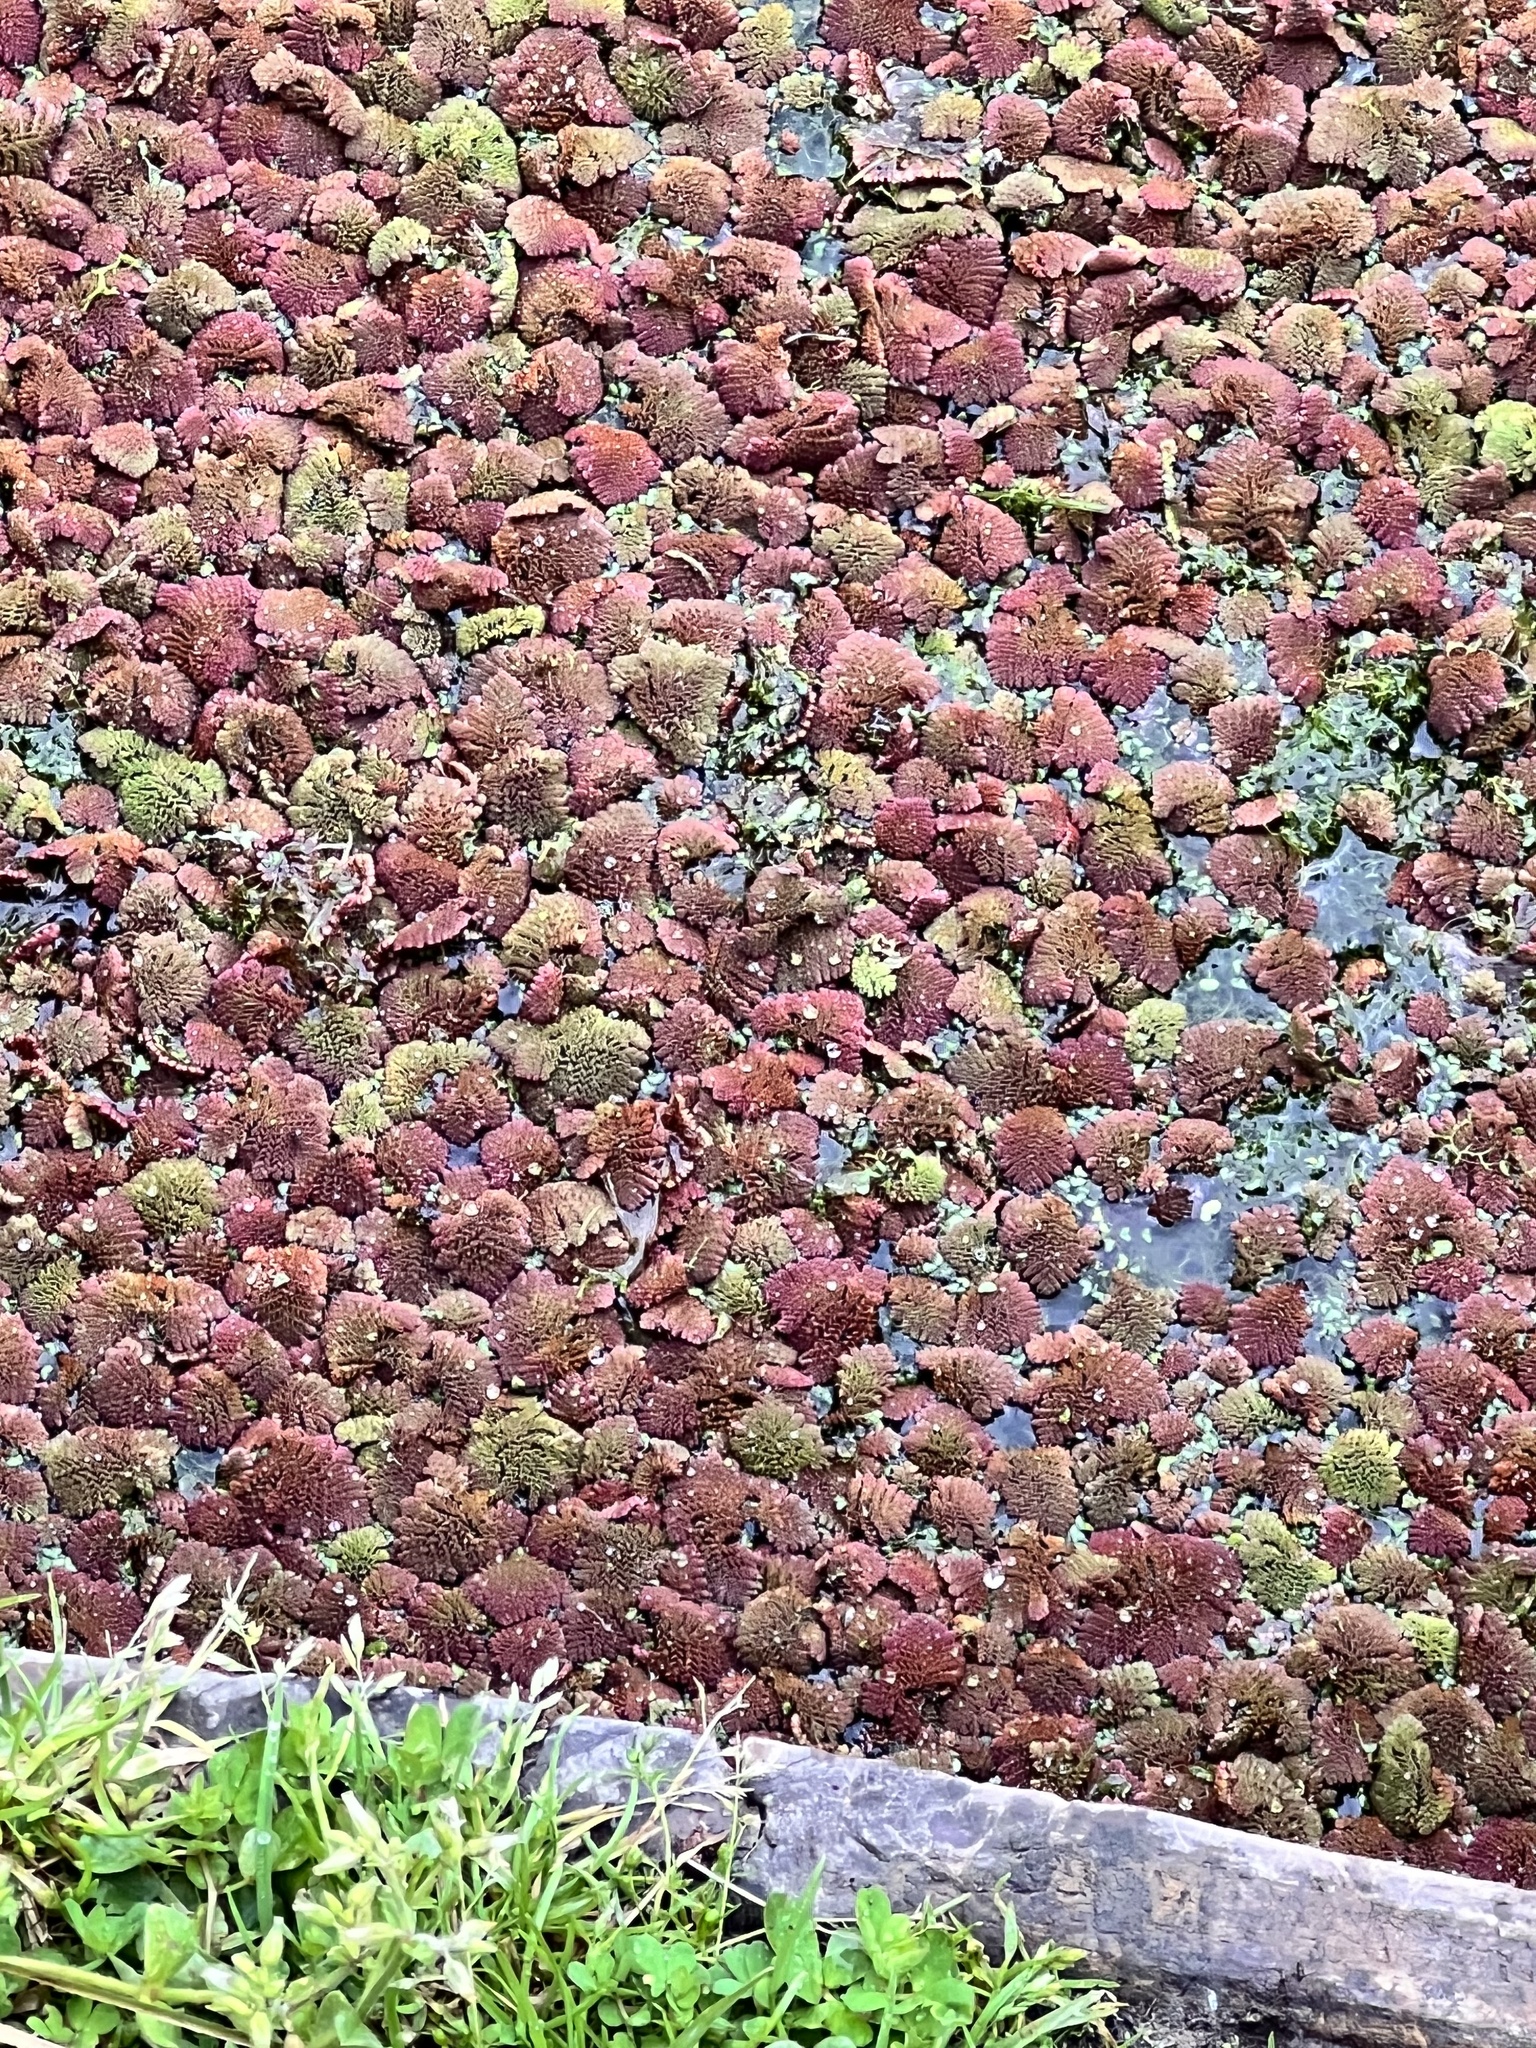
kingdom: Plantae
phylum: Tracheophyta
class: Polypodiopsida
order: Salviniales
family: Salviniaceae
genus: Azolla
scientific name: Azolla pinnata
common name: Ferny azolla
